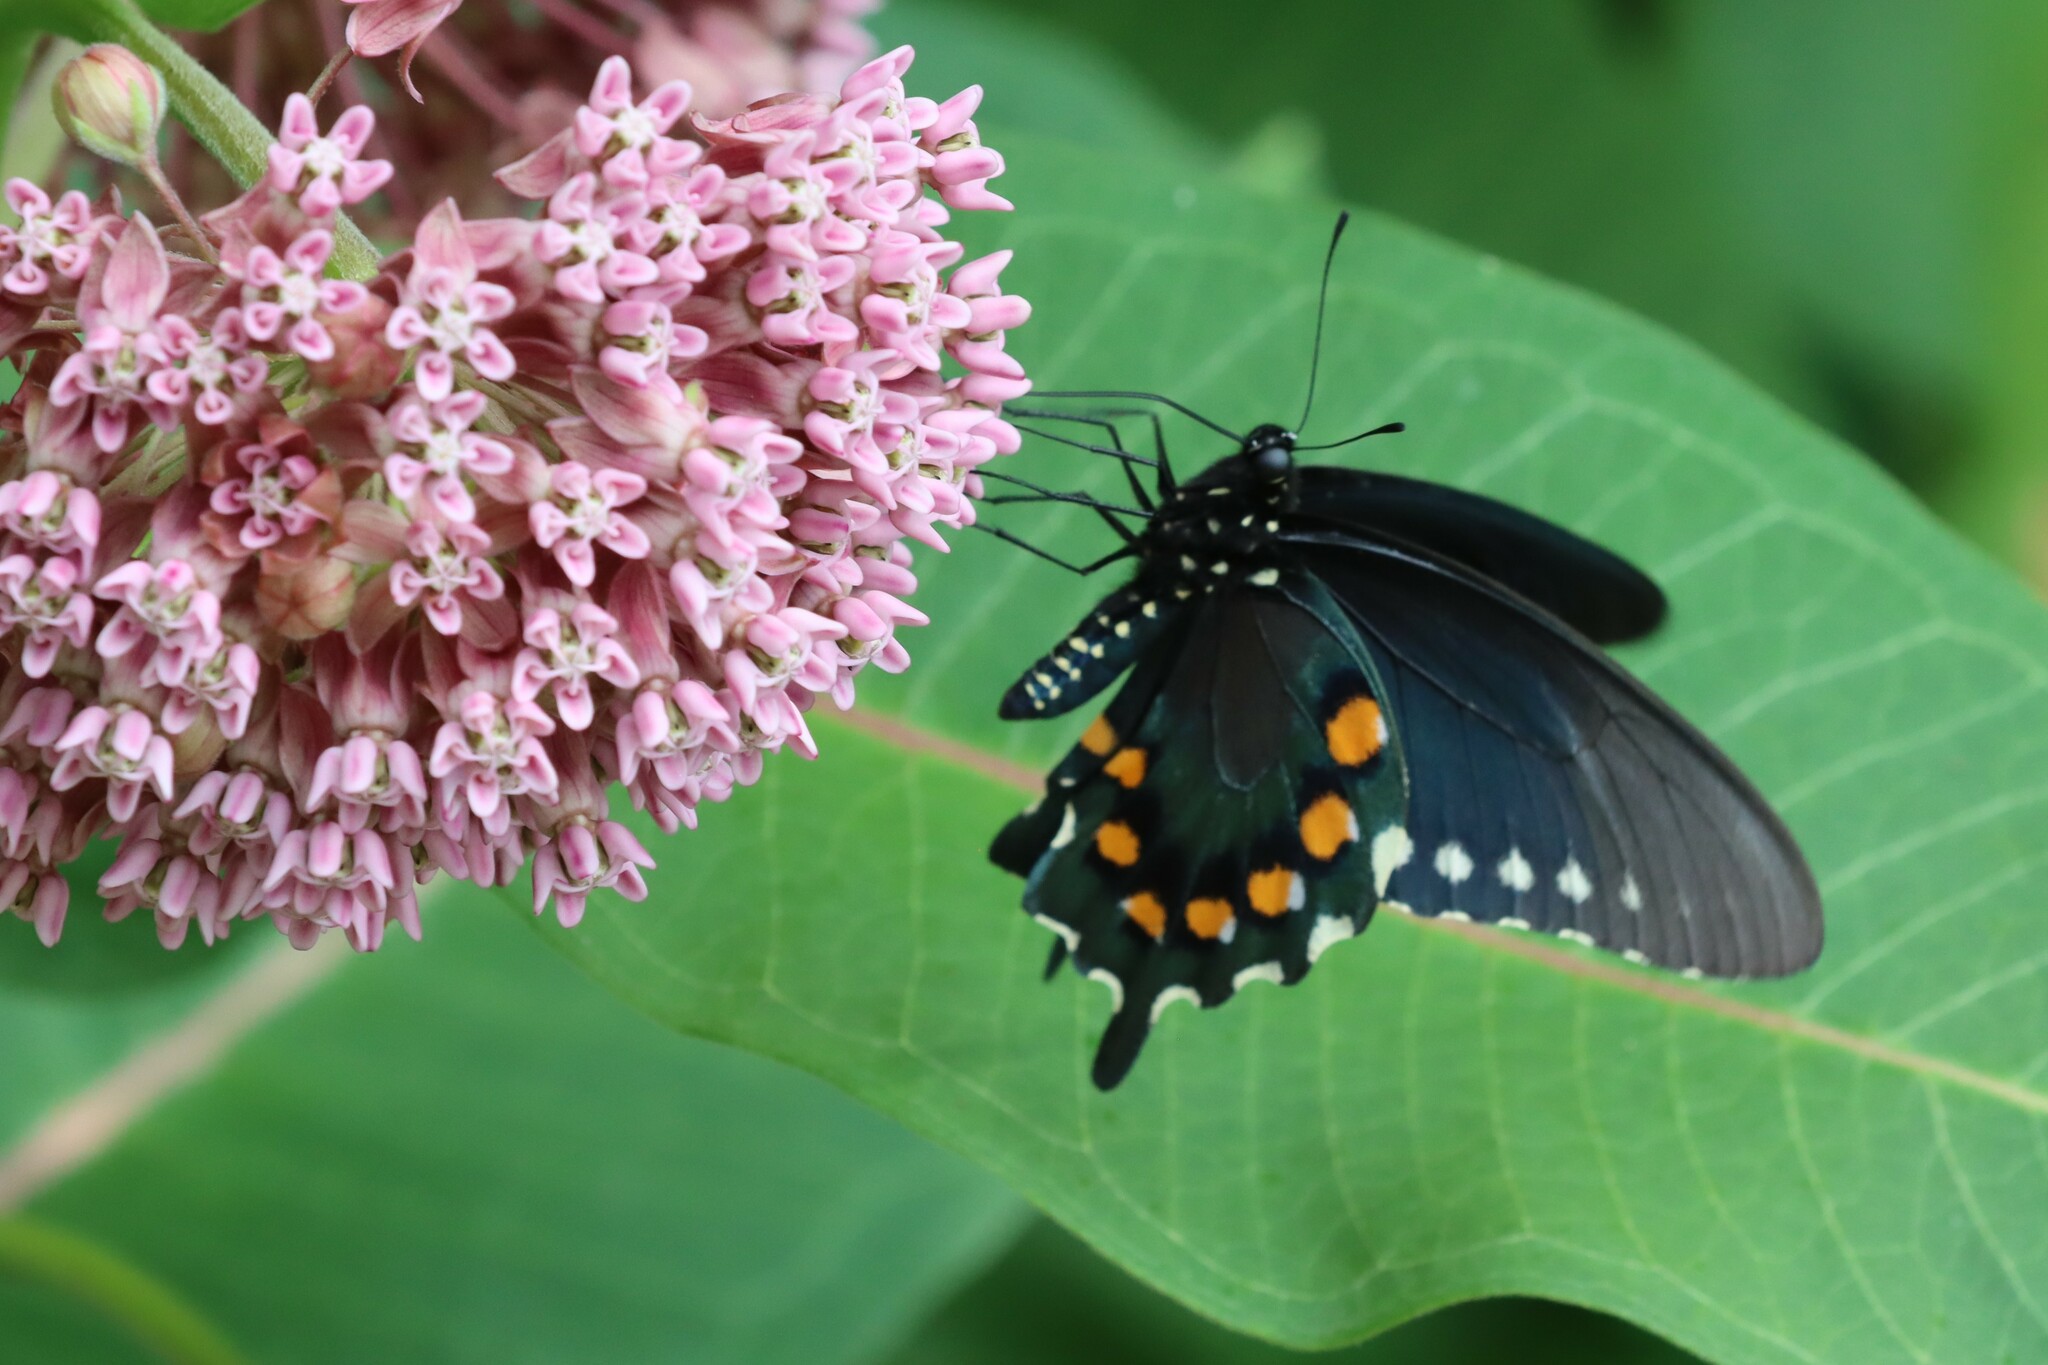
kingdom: Animalia
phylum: Arthropoda
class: Insecta
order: Lepidoptera
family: Papilionidae
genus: Battus
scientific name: Battus philenor
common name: Pipevine swallowtail
